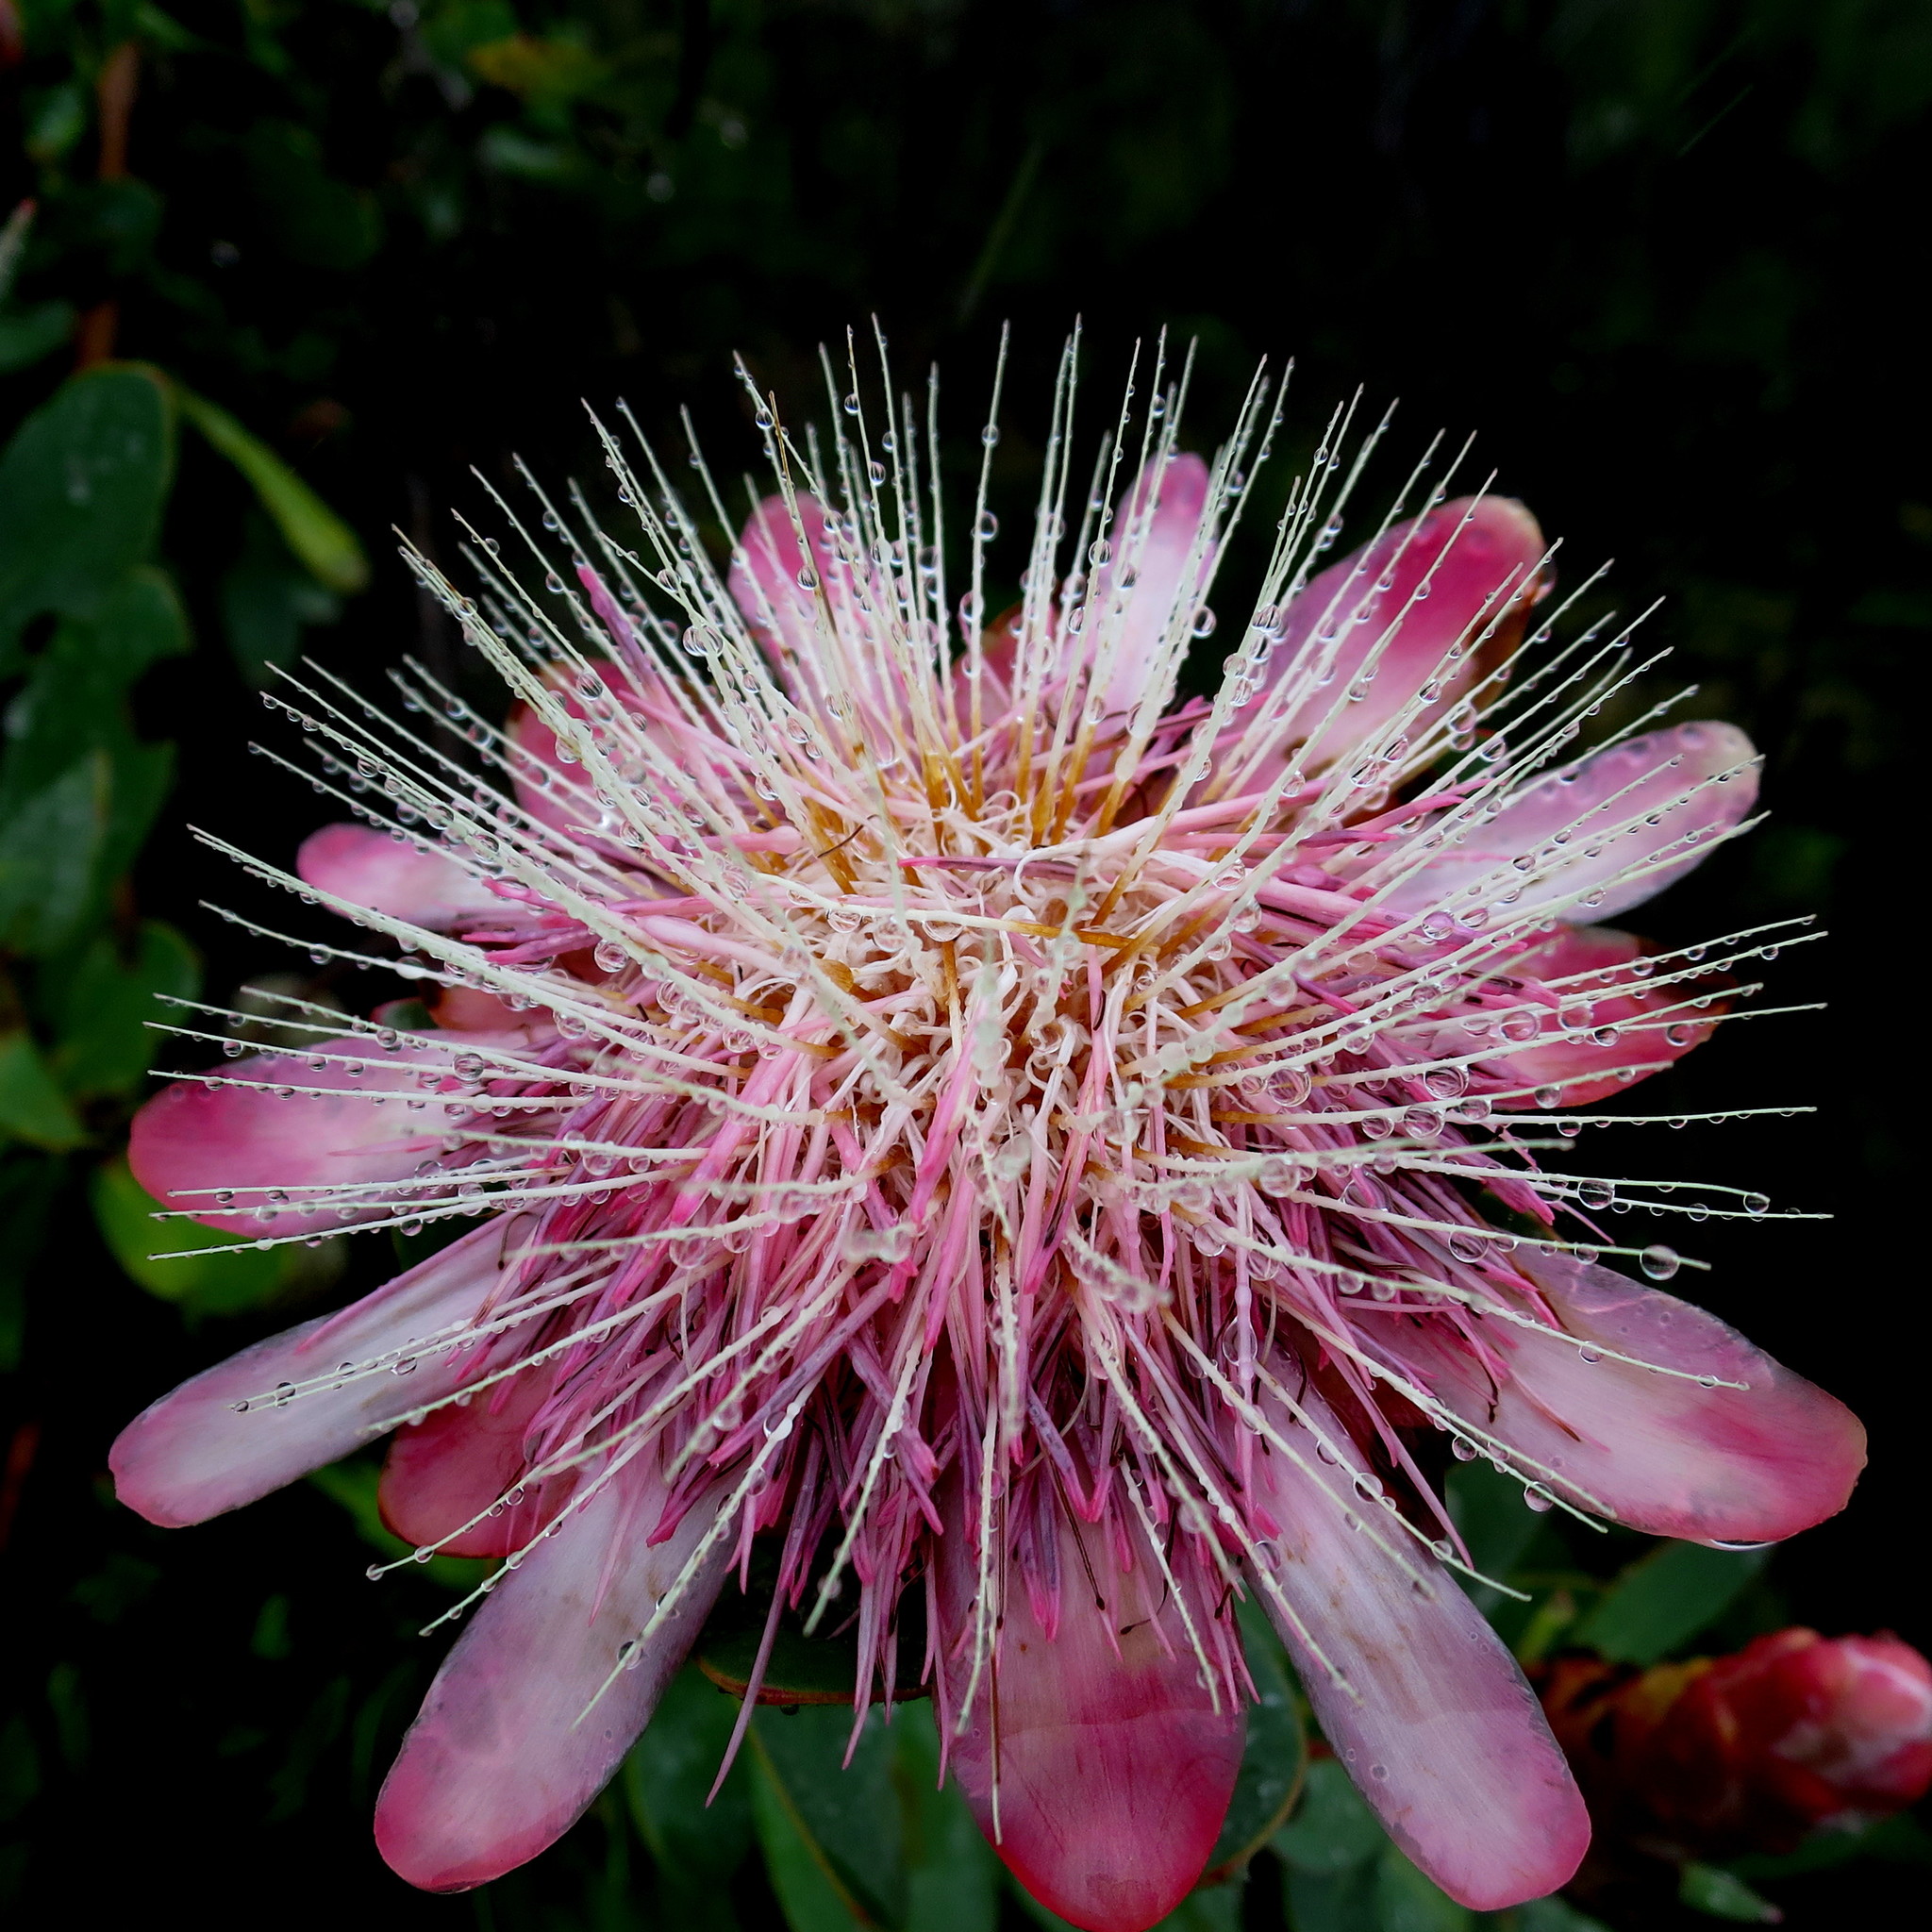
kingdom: Plantae
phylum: Tracheophyta
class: Magnoliopsida
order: Proteales
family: Proteaceae
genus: Protea
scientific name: Protea punctata
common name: Water sugarbush
